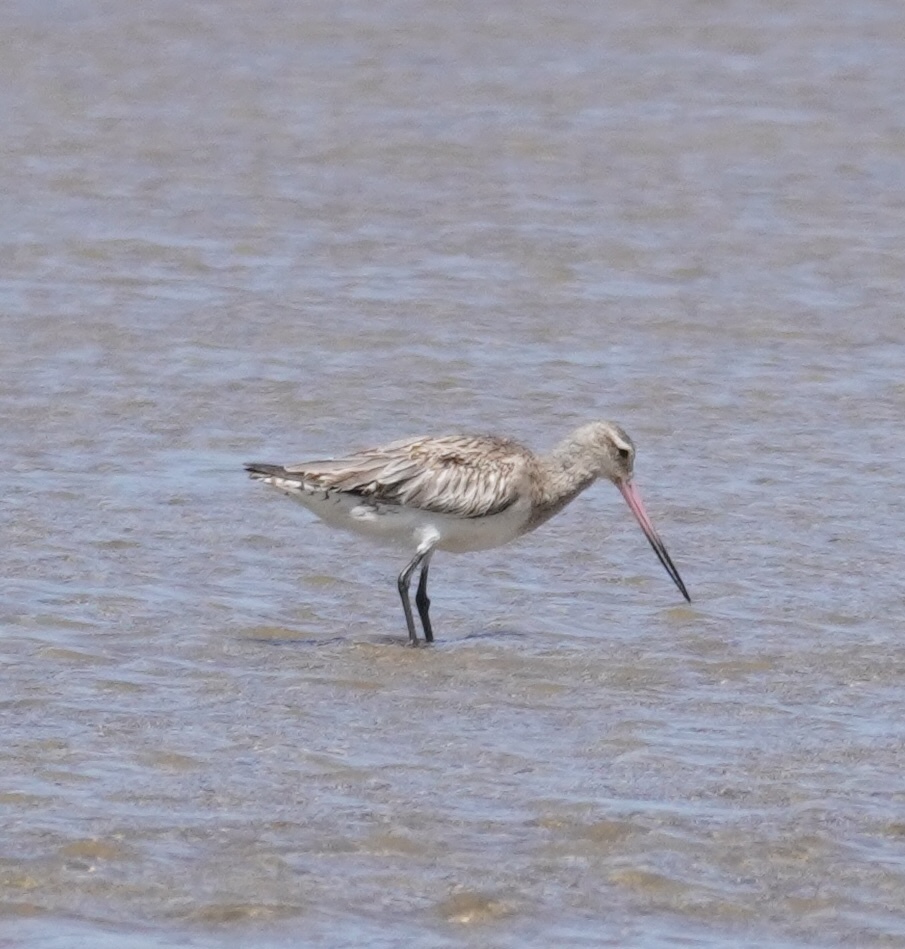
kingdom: Animalia
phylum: Chordata
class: Aves
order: Charadriiformes
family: Scolopacidae
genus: Limosa
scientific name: Limosa lapponica
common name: Bar-tailed godwit
